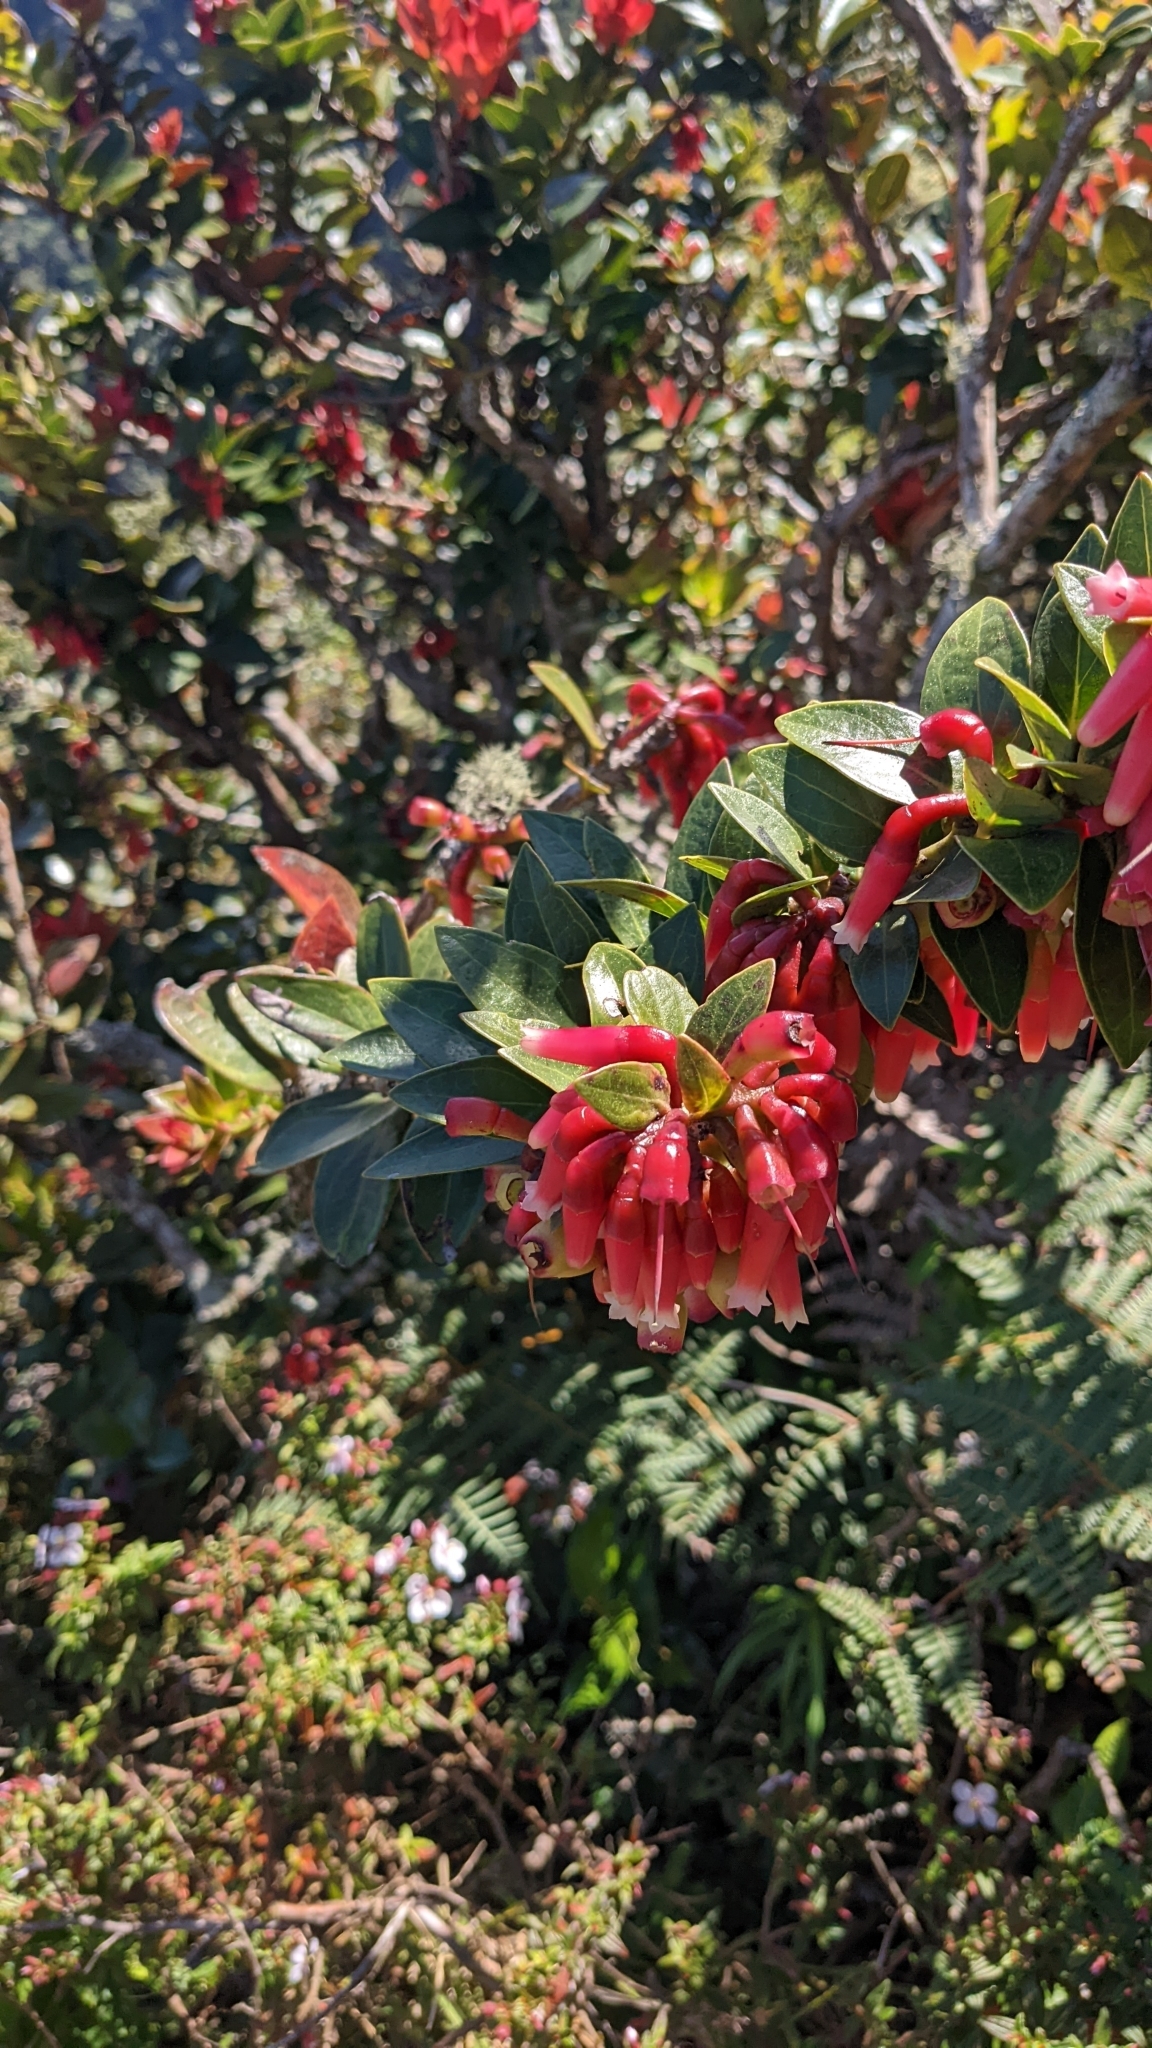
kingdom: Plantae
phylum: Tracheophyta
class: Magnoliopsida
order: Ericales
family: Ericaceae
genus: Macleania
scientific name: Macleania rupestris
